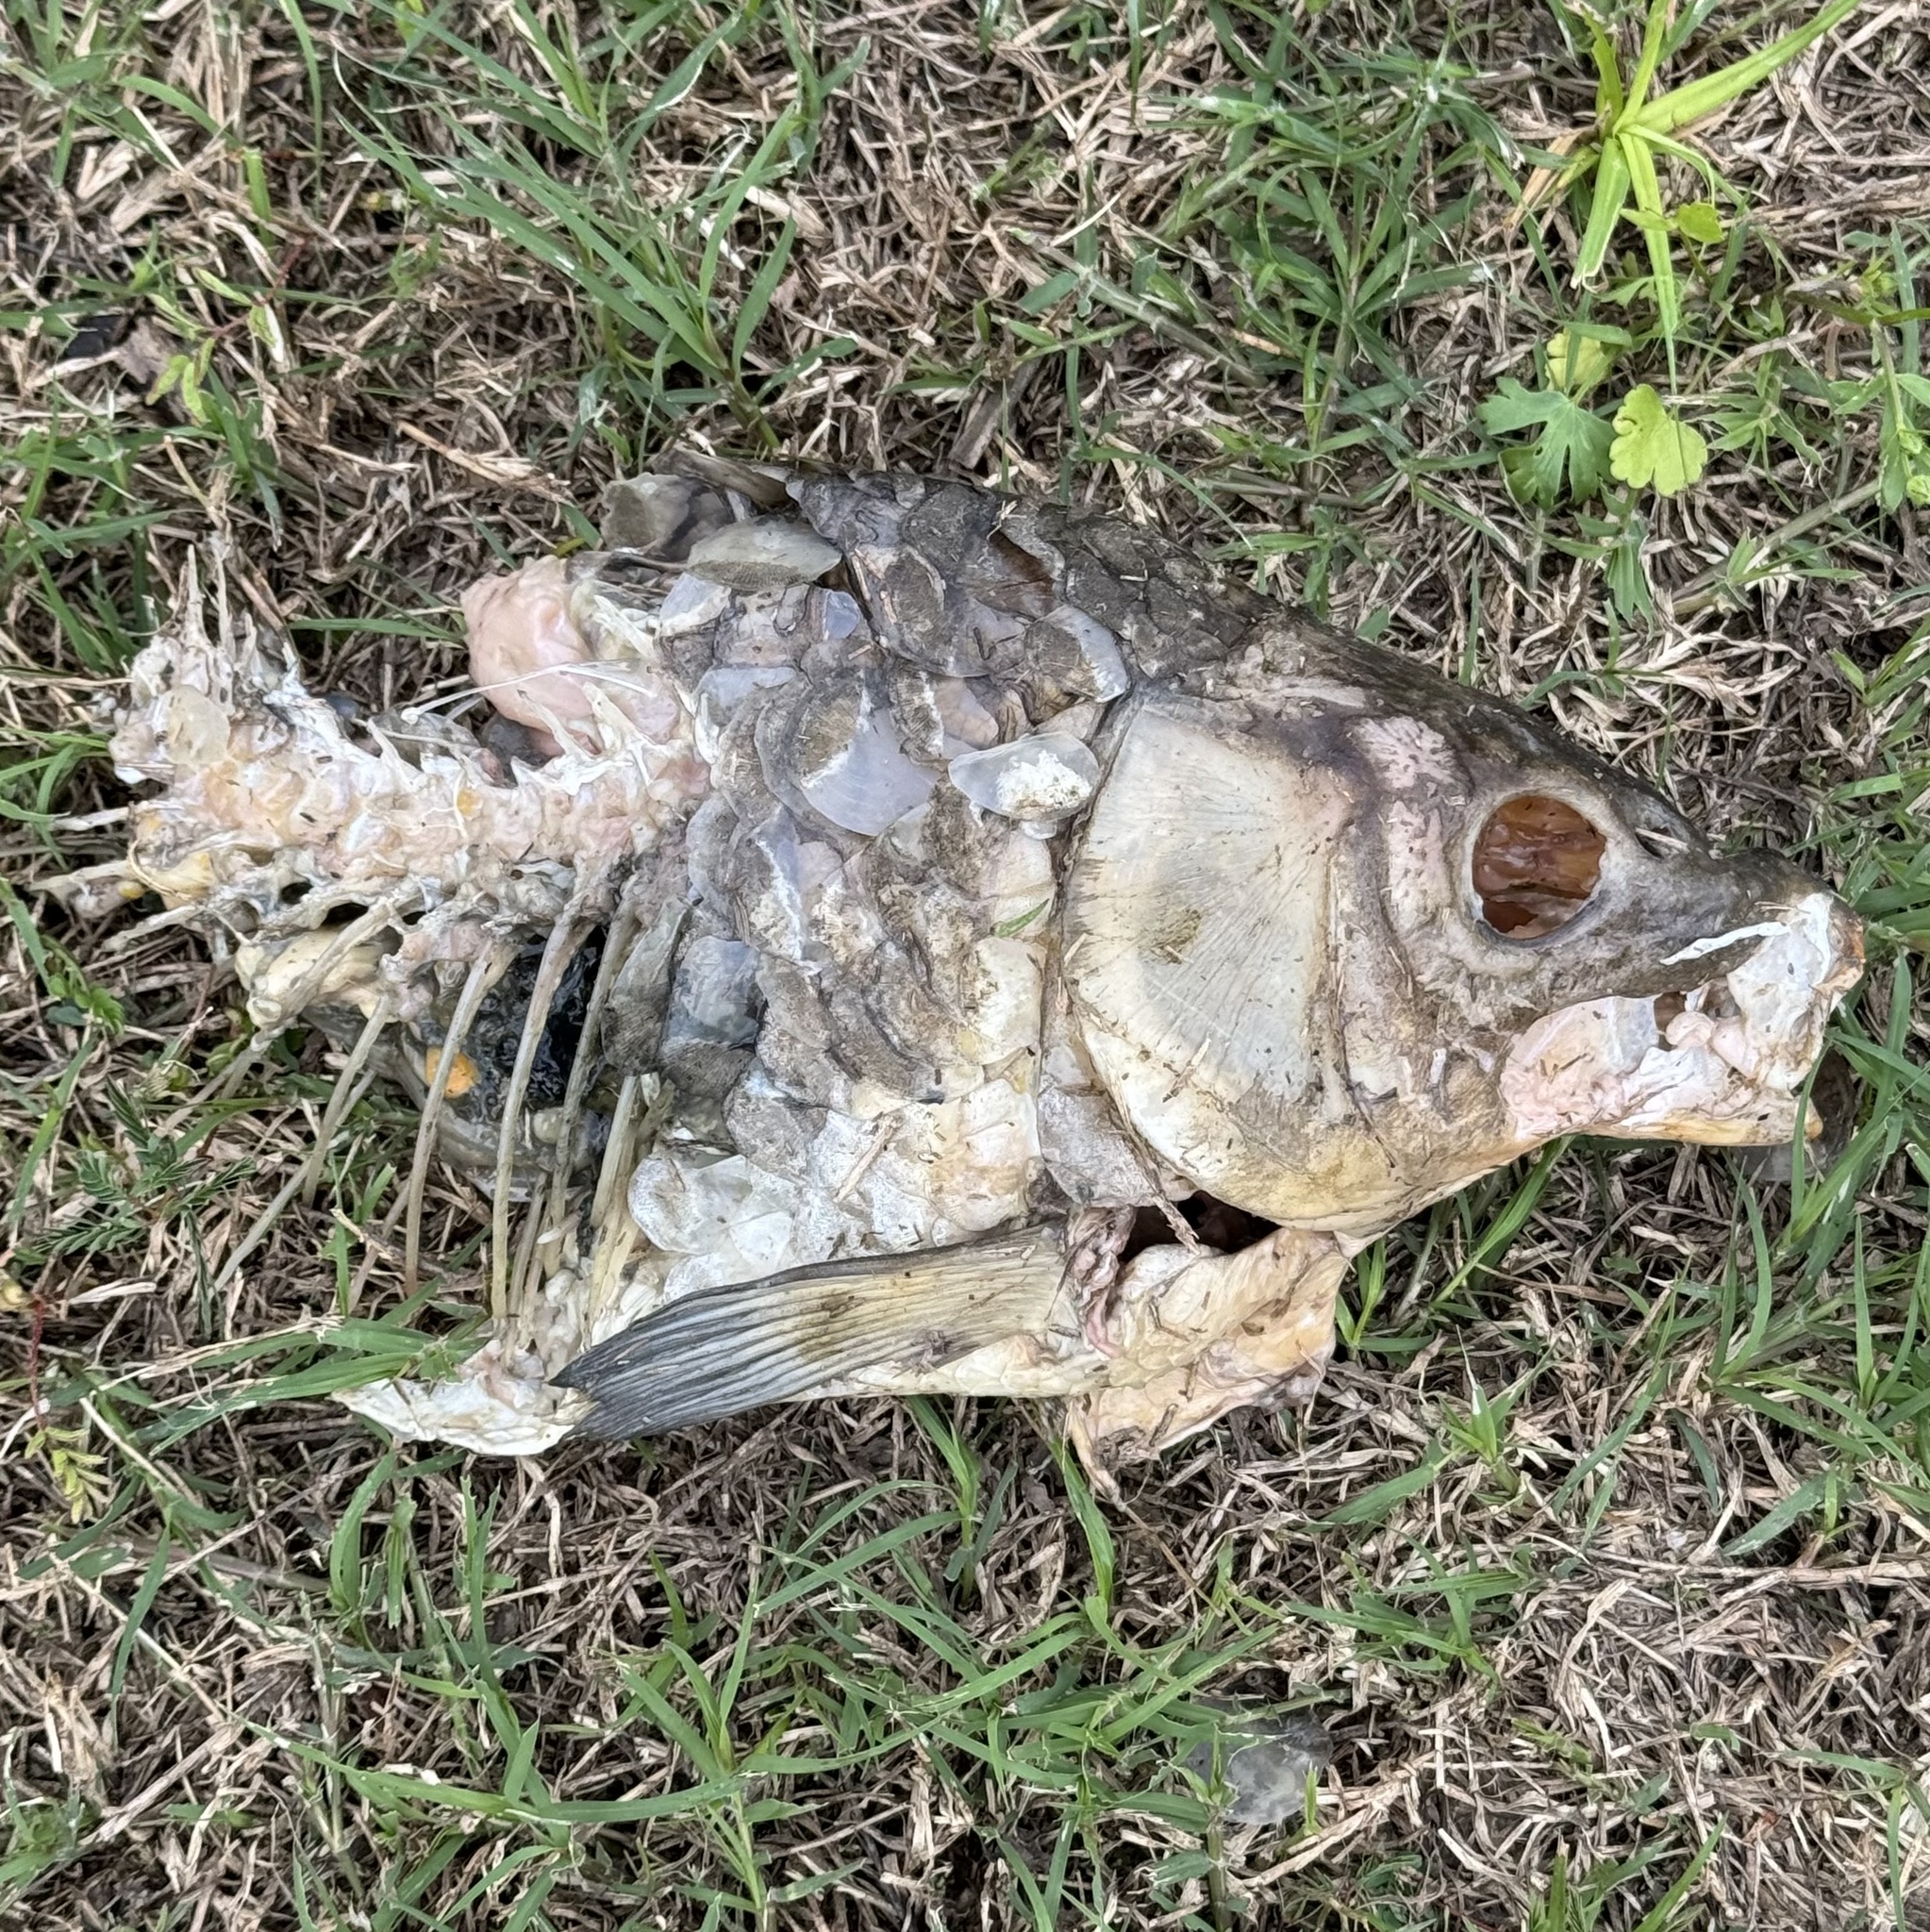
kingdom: Animalia
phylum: Chordata
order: Cypriniformes
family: Cyprinidae
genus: Cyprinus
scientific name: Cyprinus carpio
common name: Common carp
